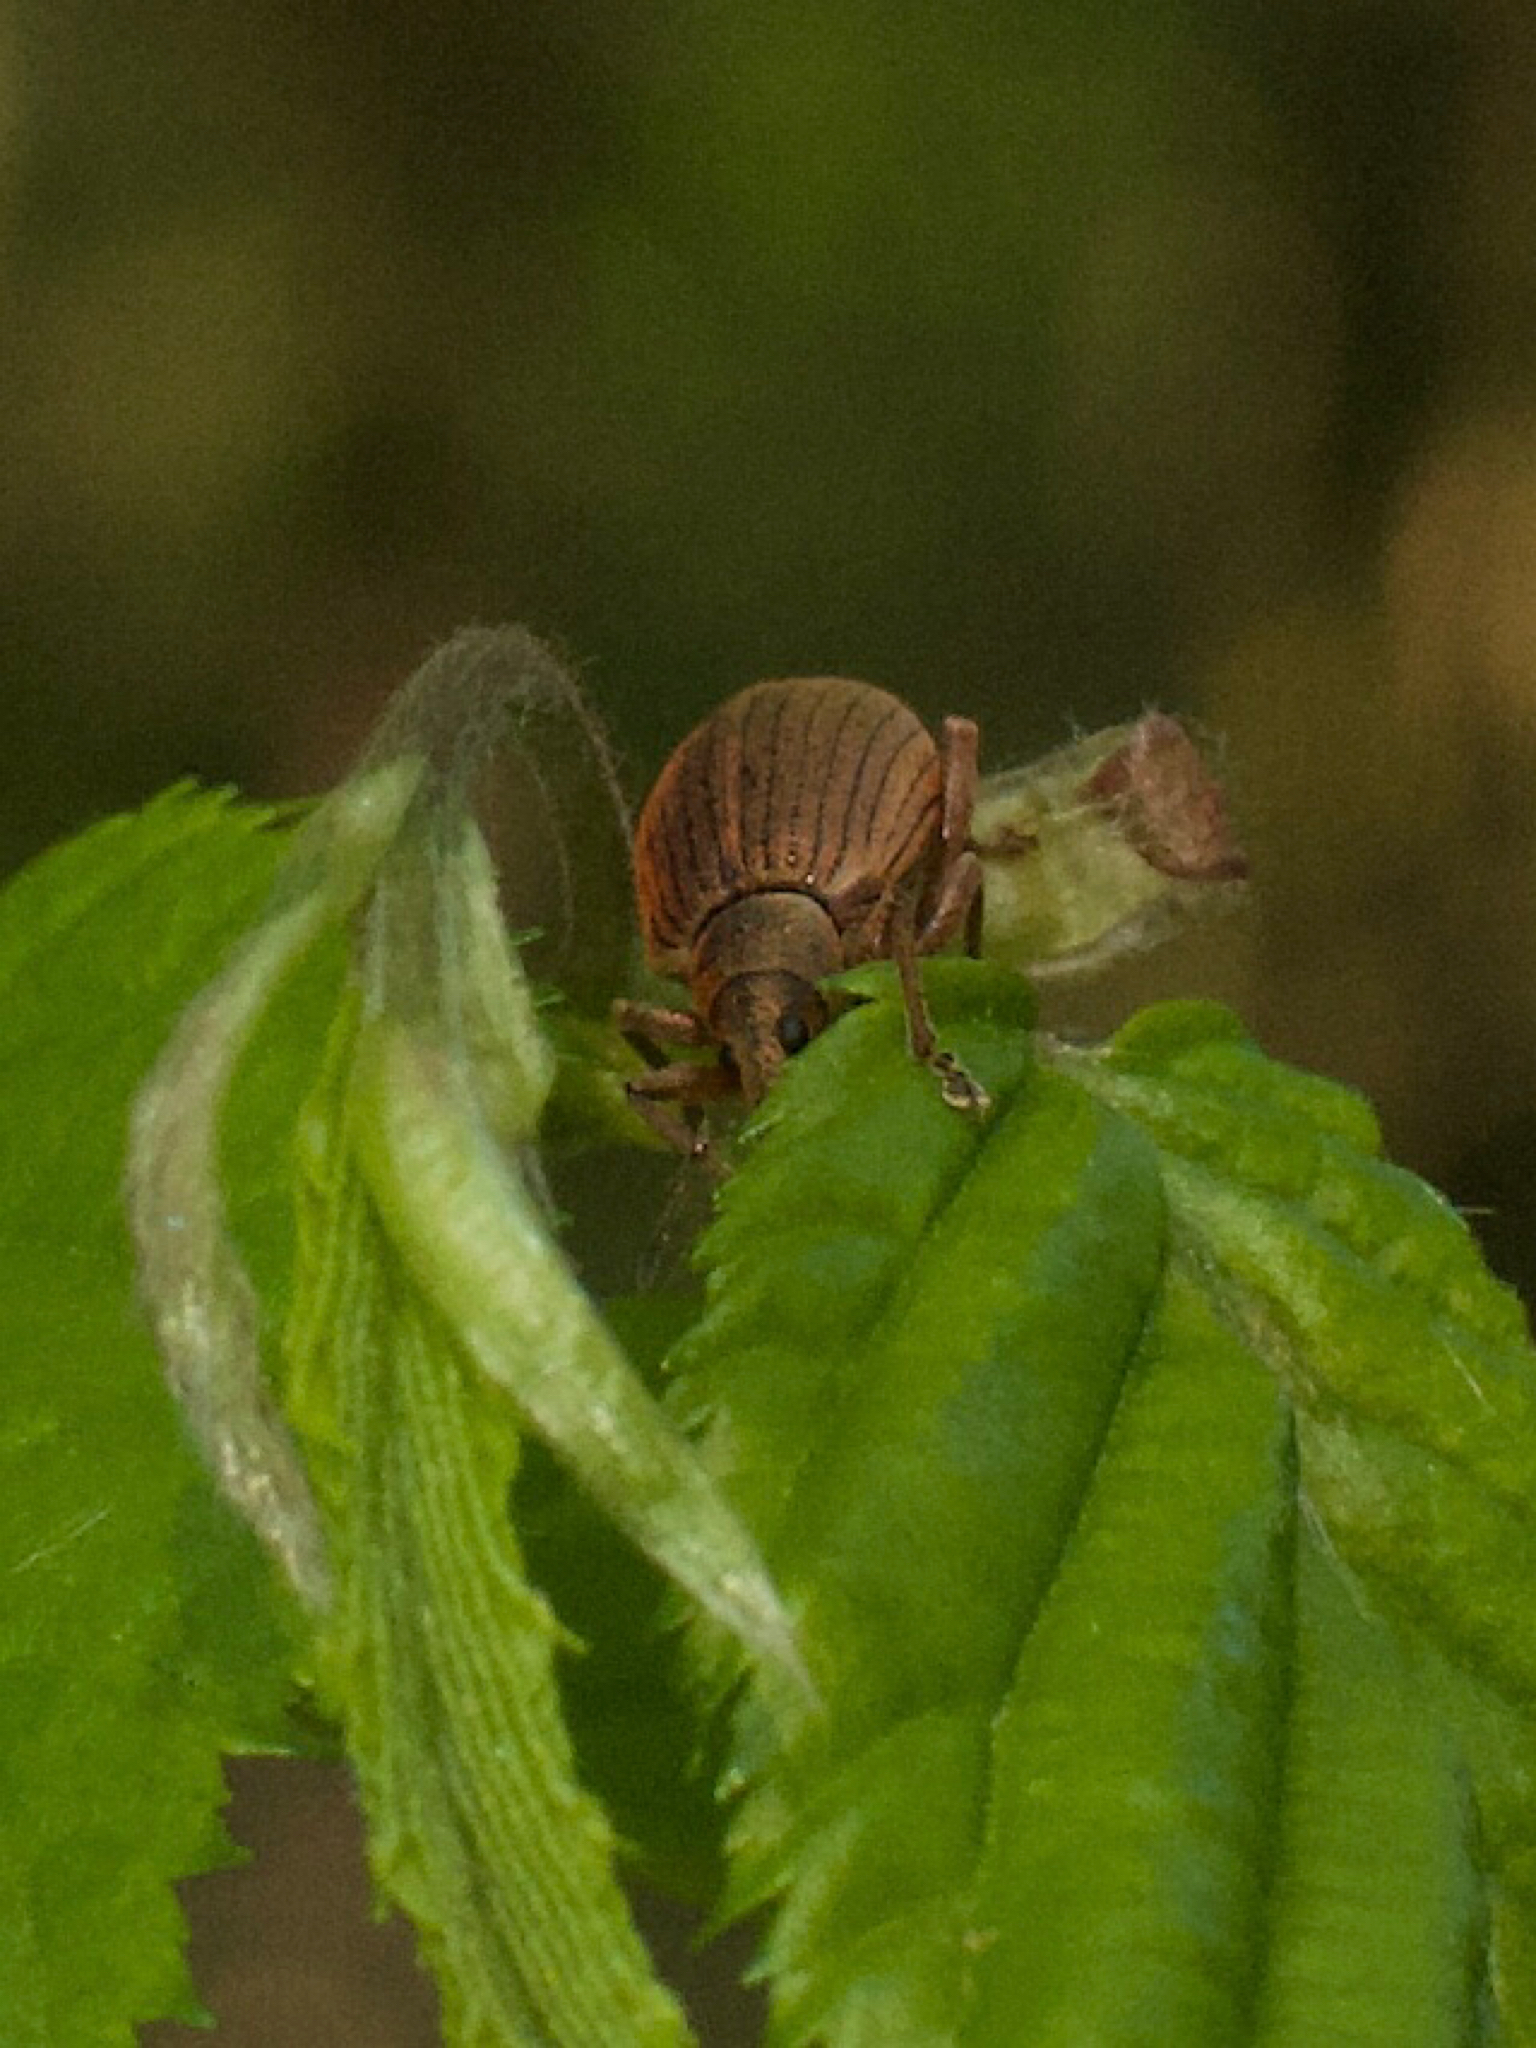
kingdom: Animalia
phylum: Arthropoda
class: Insecta
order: Coleoptera
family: Curculionidae
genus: Polydrusus
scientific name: Polydrusus mollis
